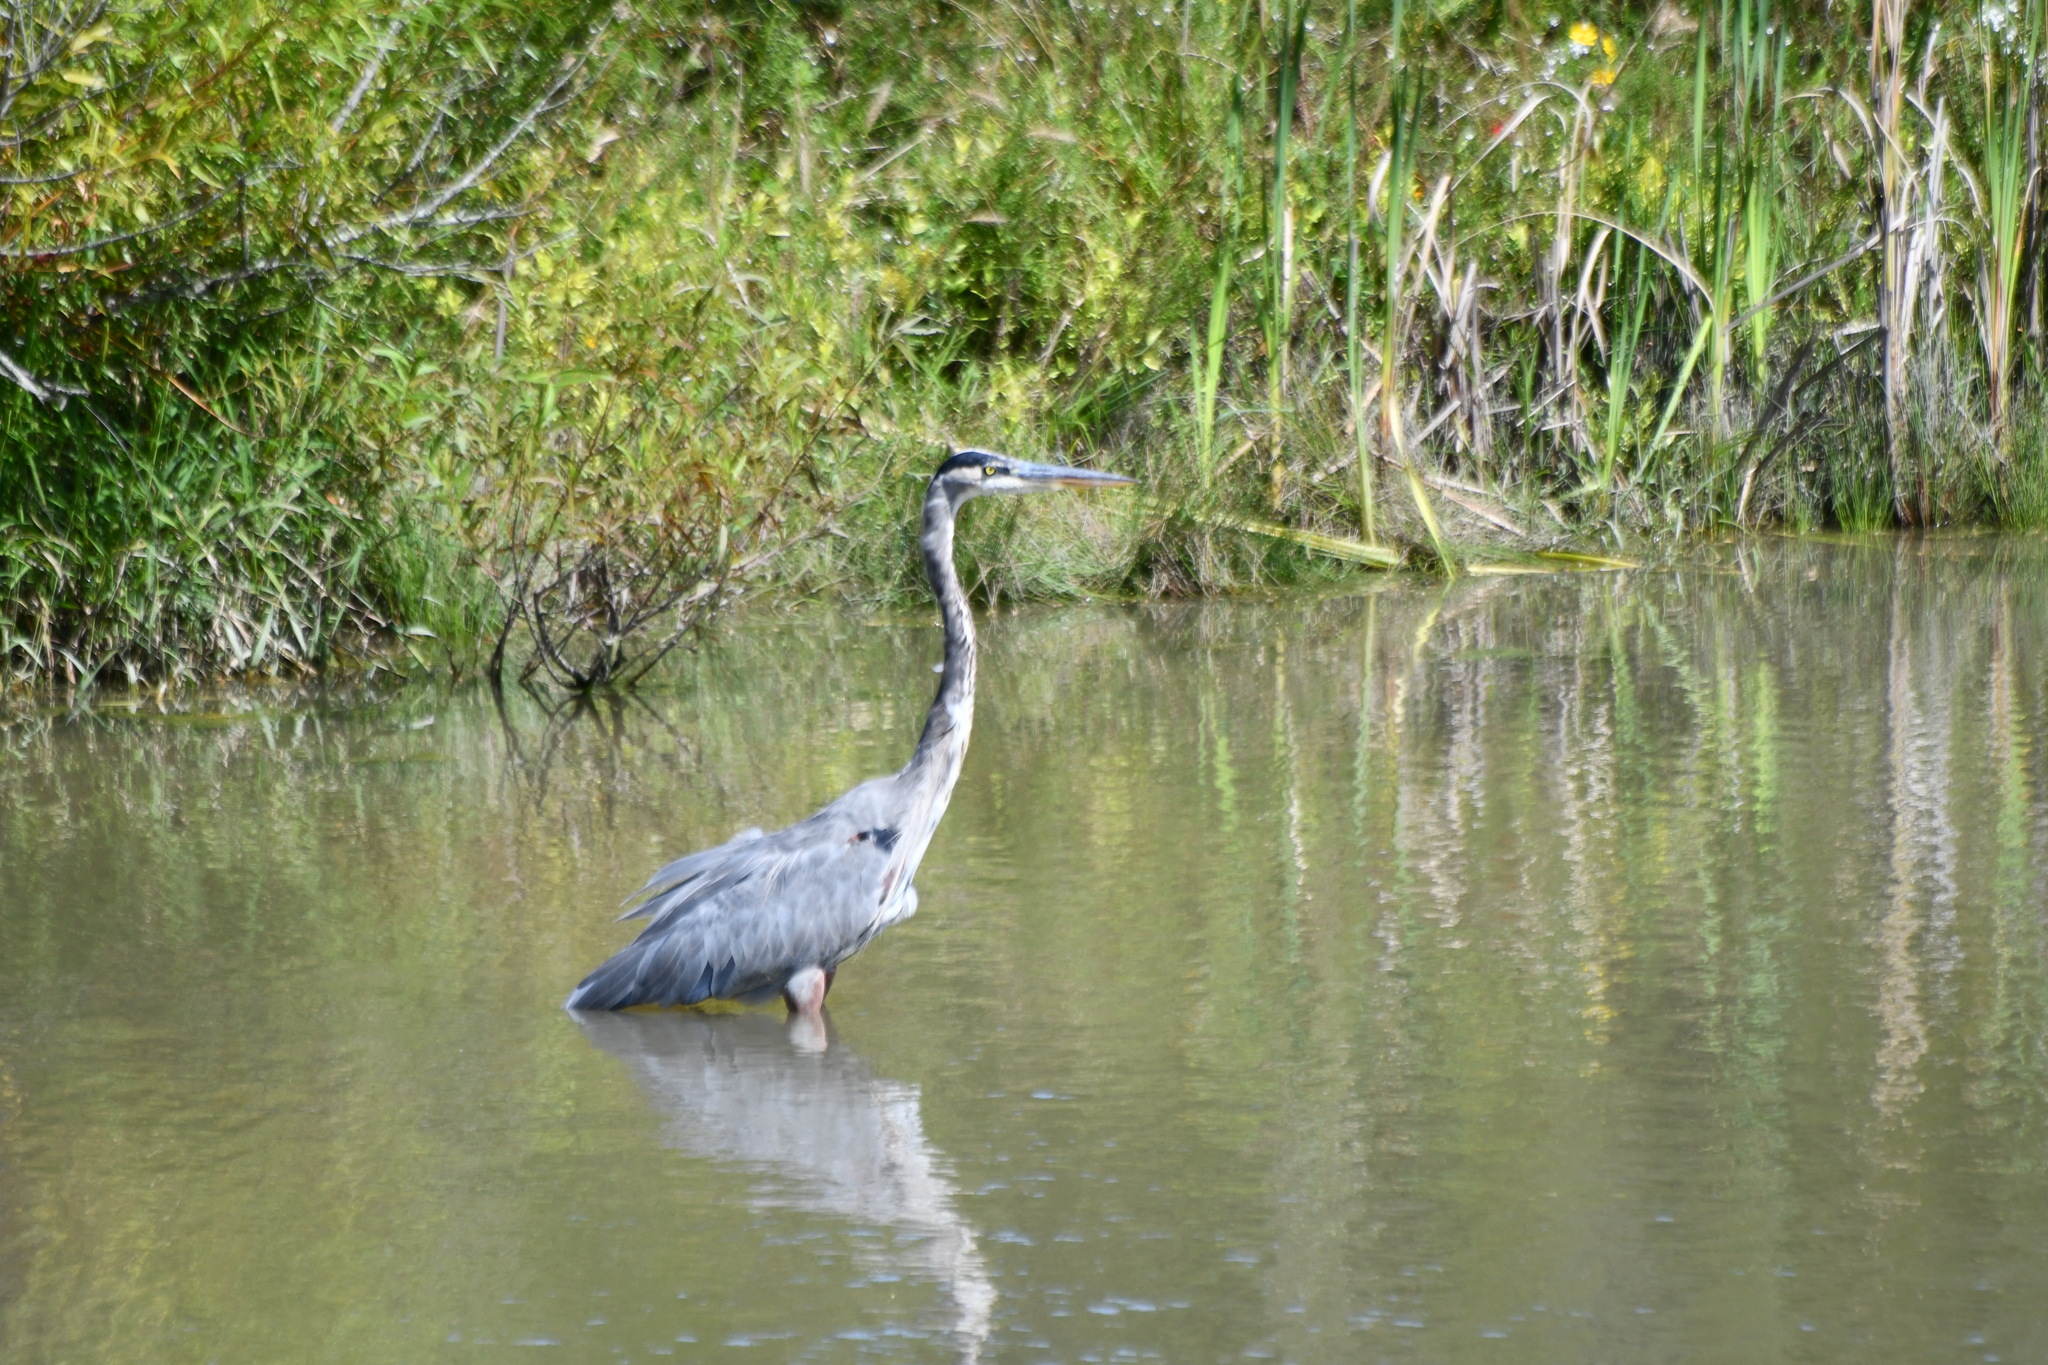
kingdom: Animalia
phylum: Chordata
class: Aves
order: Pelecaniformes
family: Ardeidae
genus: Ardea
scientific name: Ardea herodias
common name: Great blue heron
